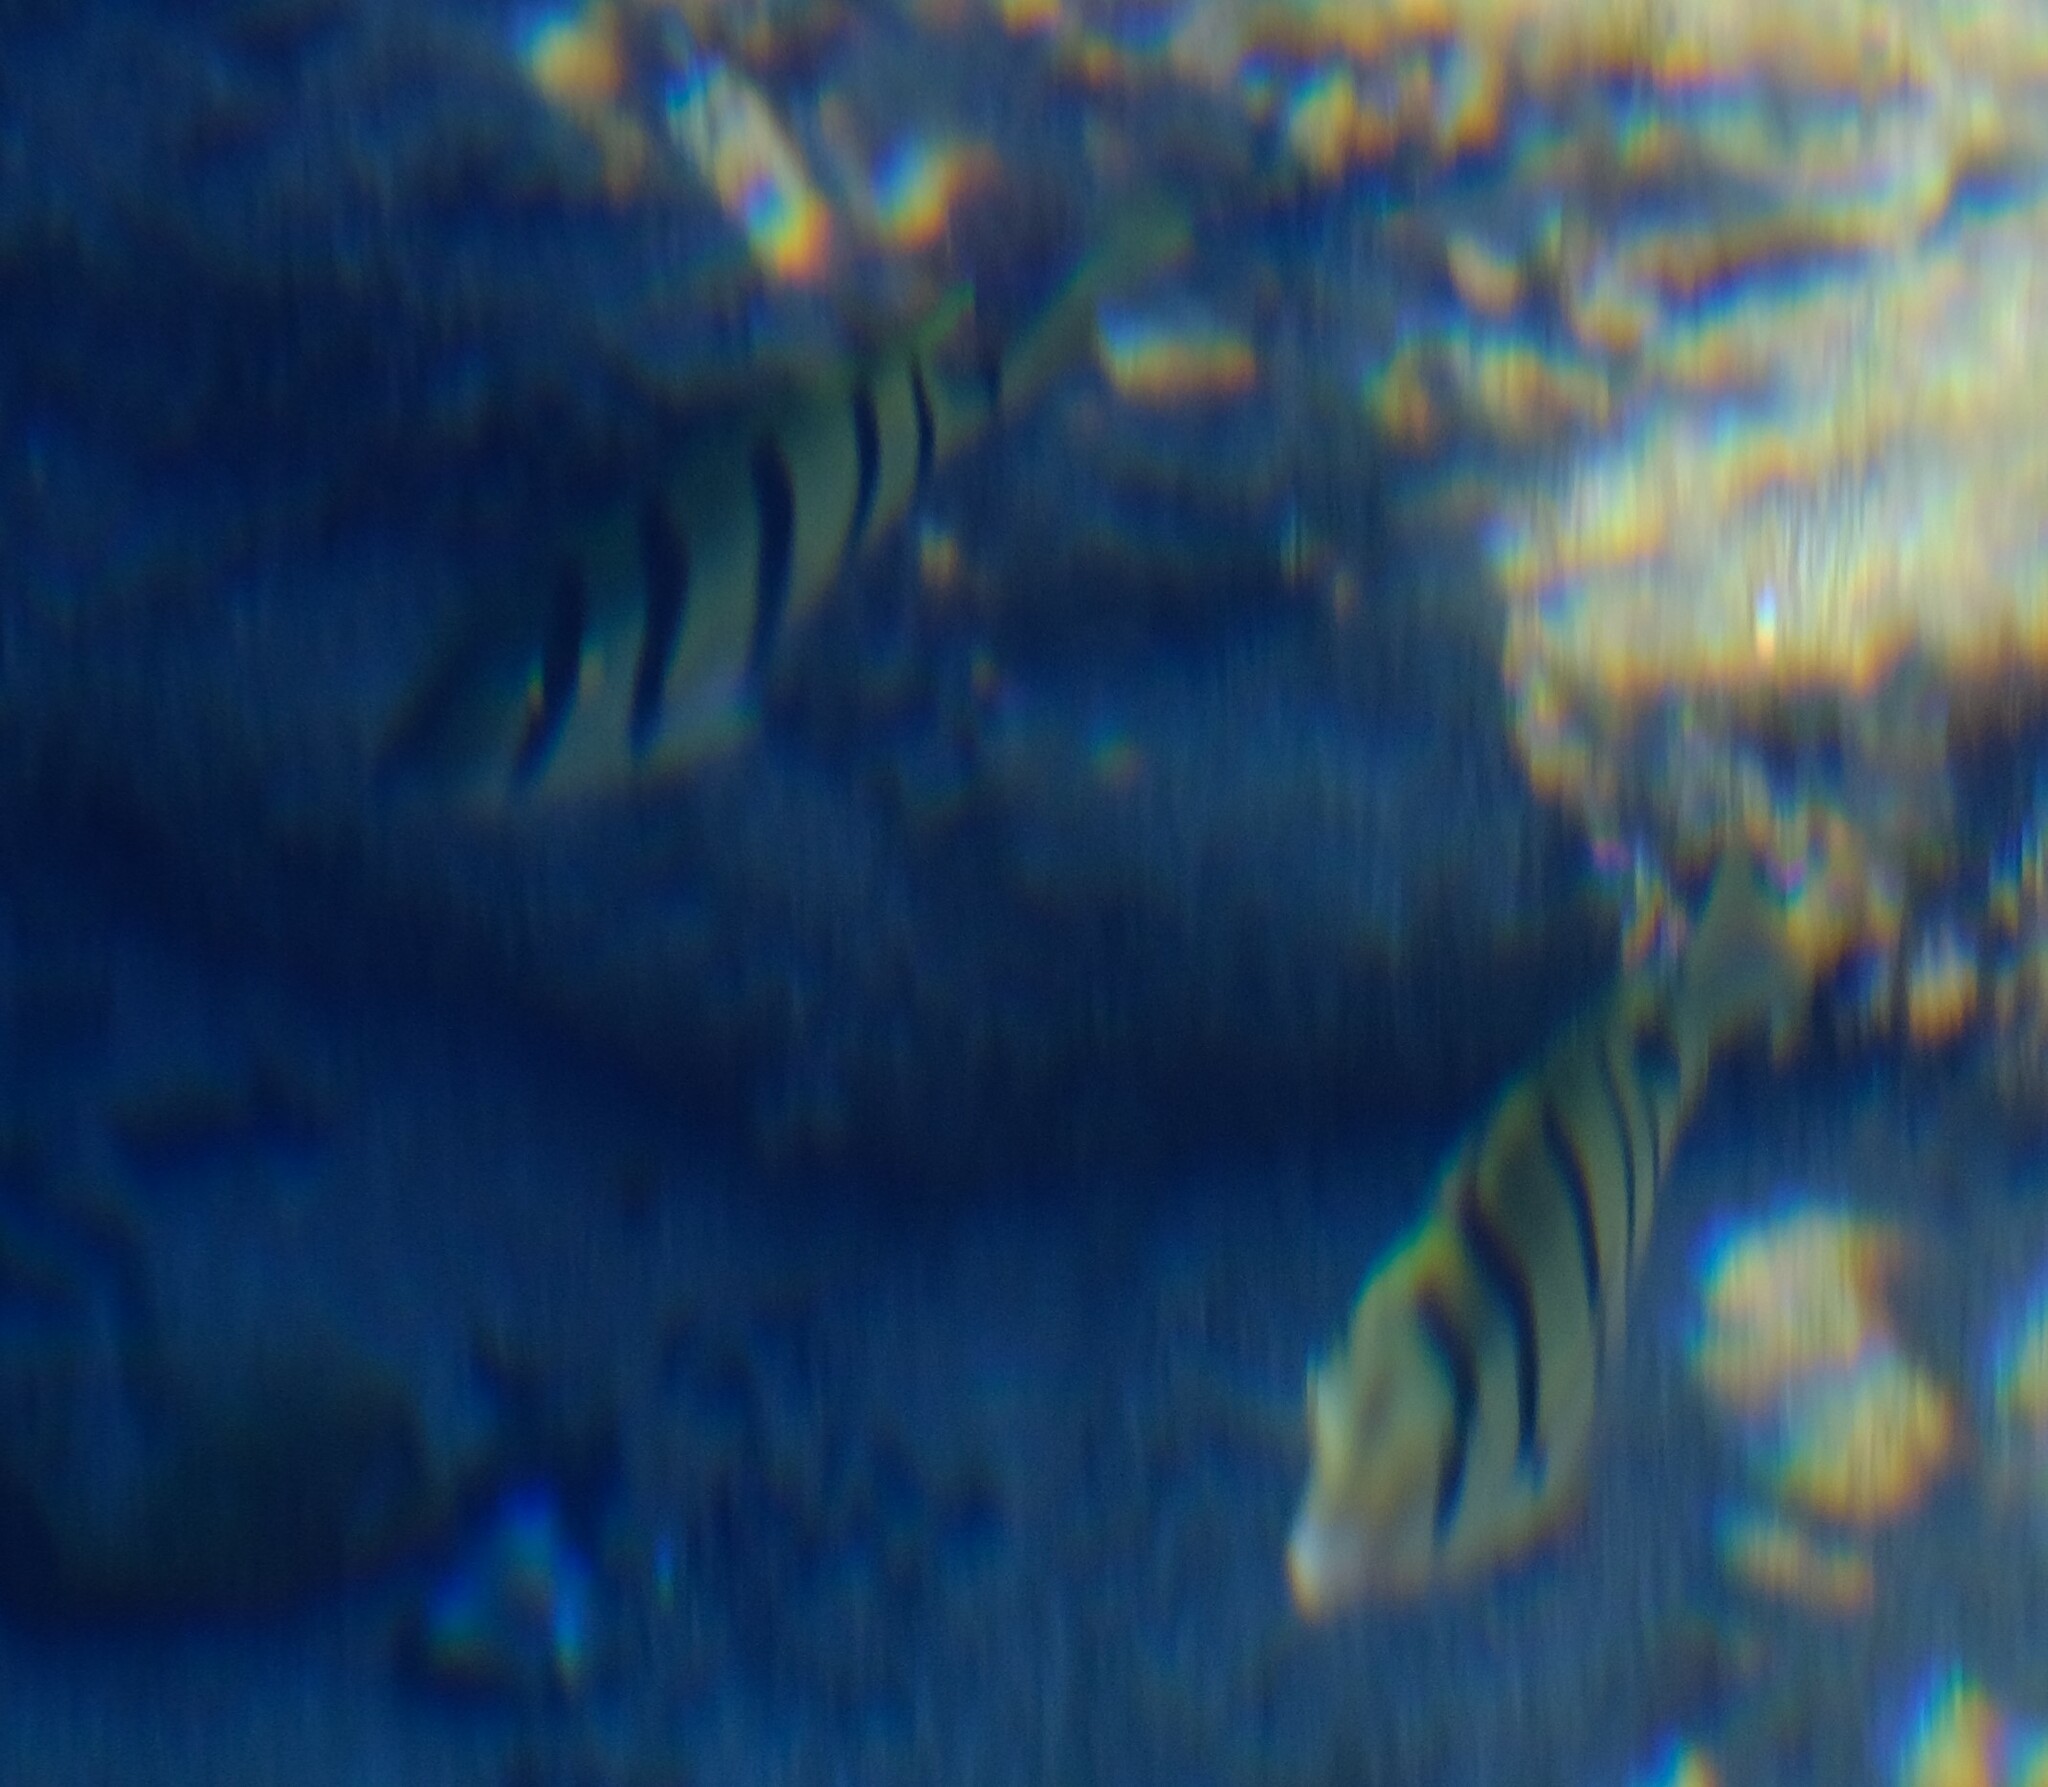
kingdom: Animalia
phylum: Chordata
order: Perciformes
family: Acanthuridae
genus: Acanthurus
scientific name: Acanthurus triostegus
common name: Convict surgeonfish
